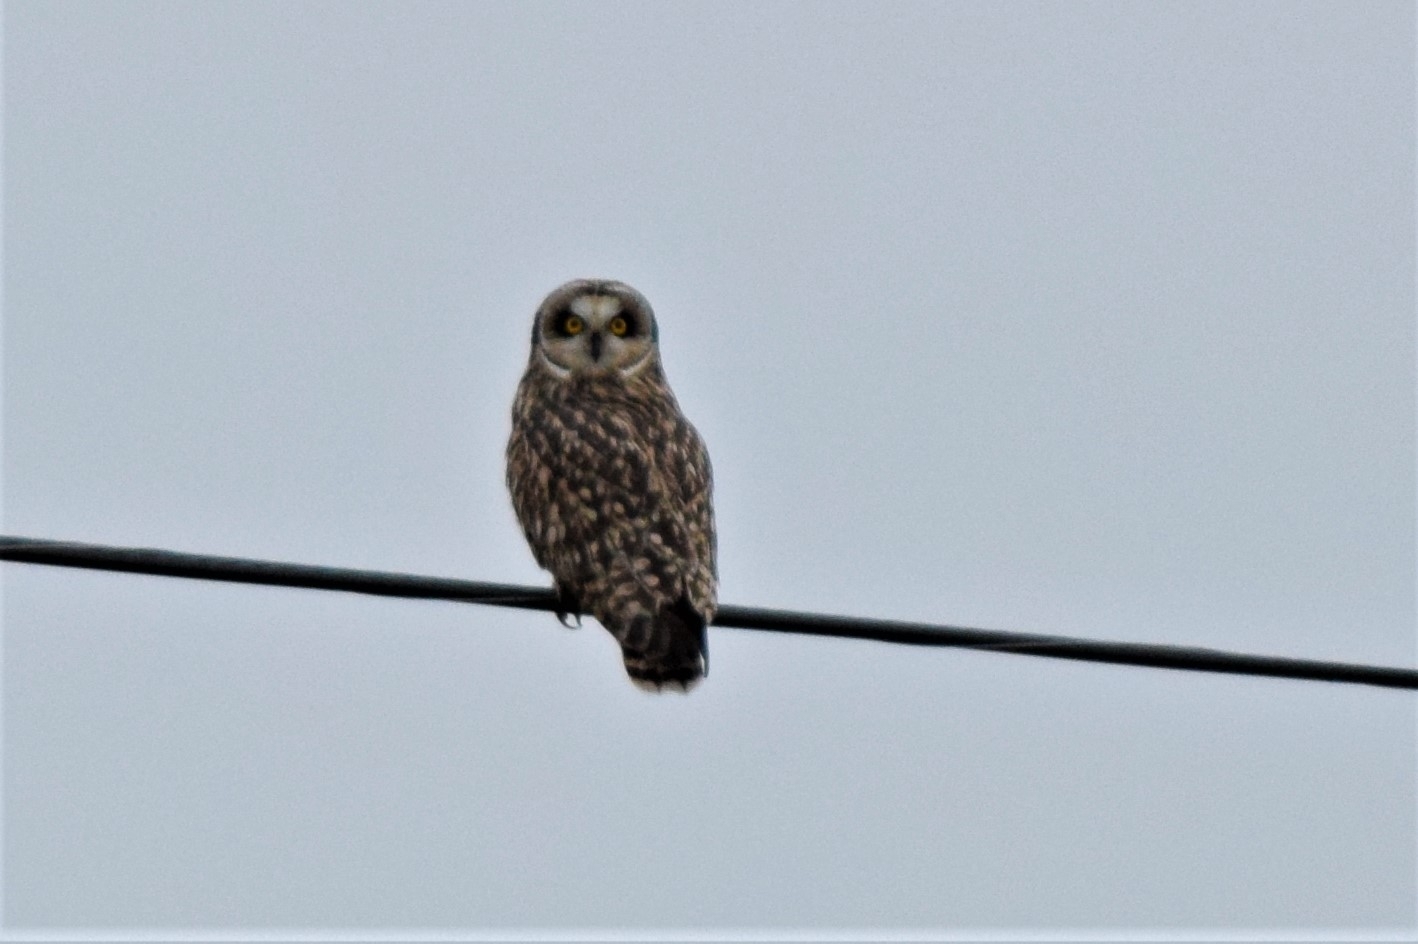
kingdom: Animalia
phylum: Chordata
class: Aves
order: Strigiformes
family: Strigidae
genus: Asio
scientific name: Asio flammeus
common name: Short-eared owl
